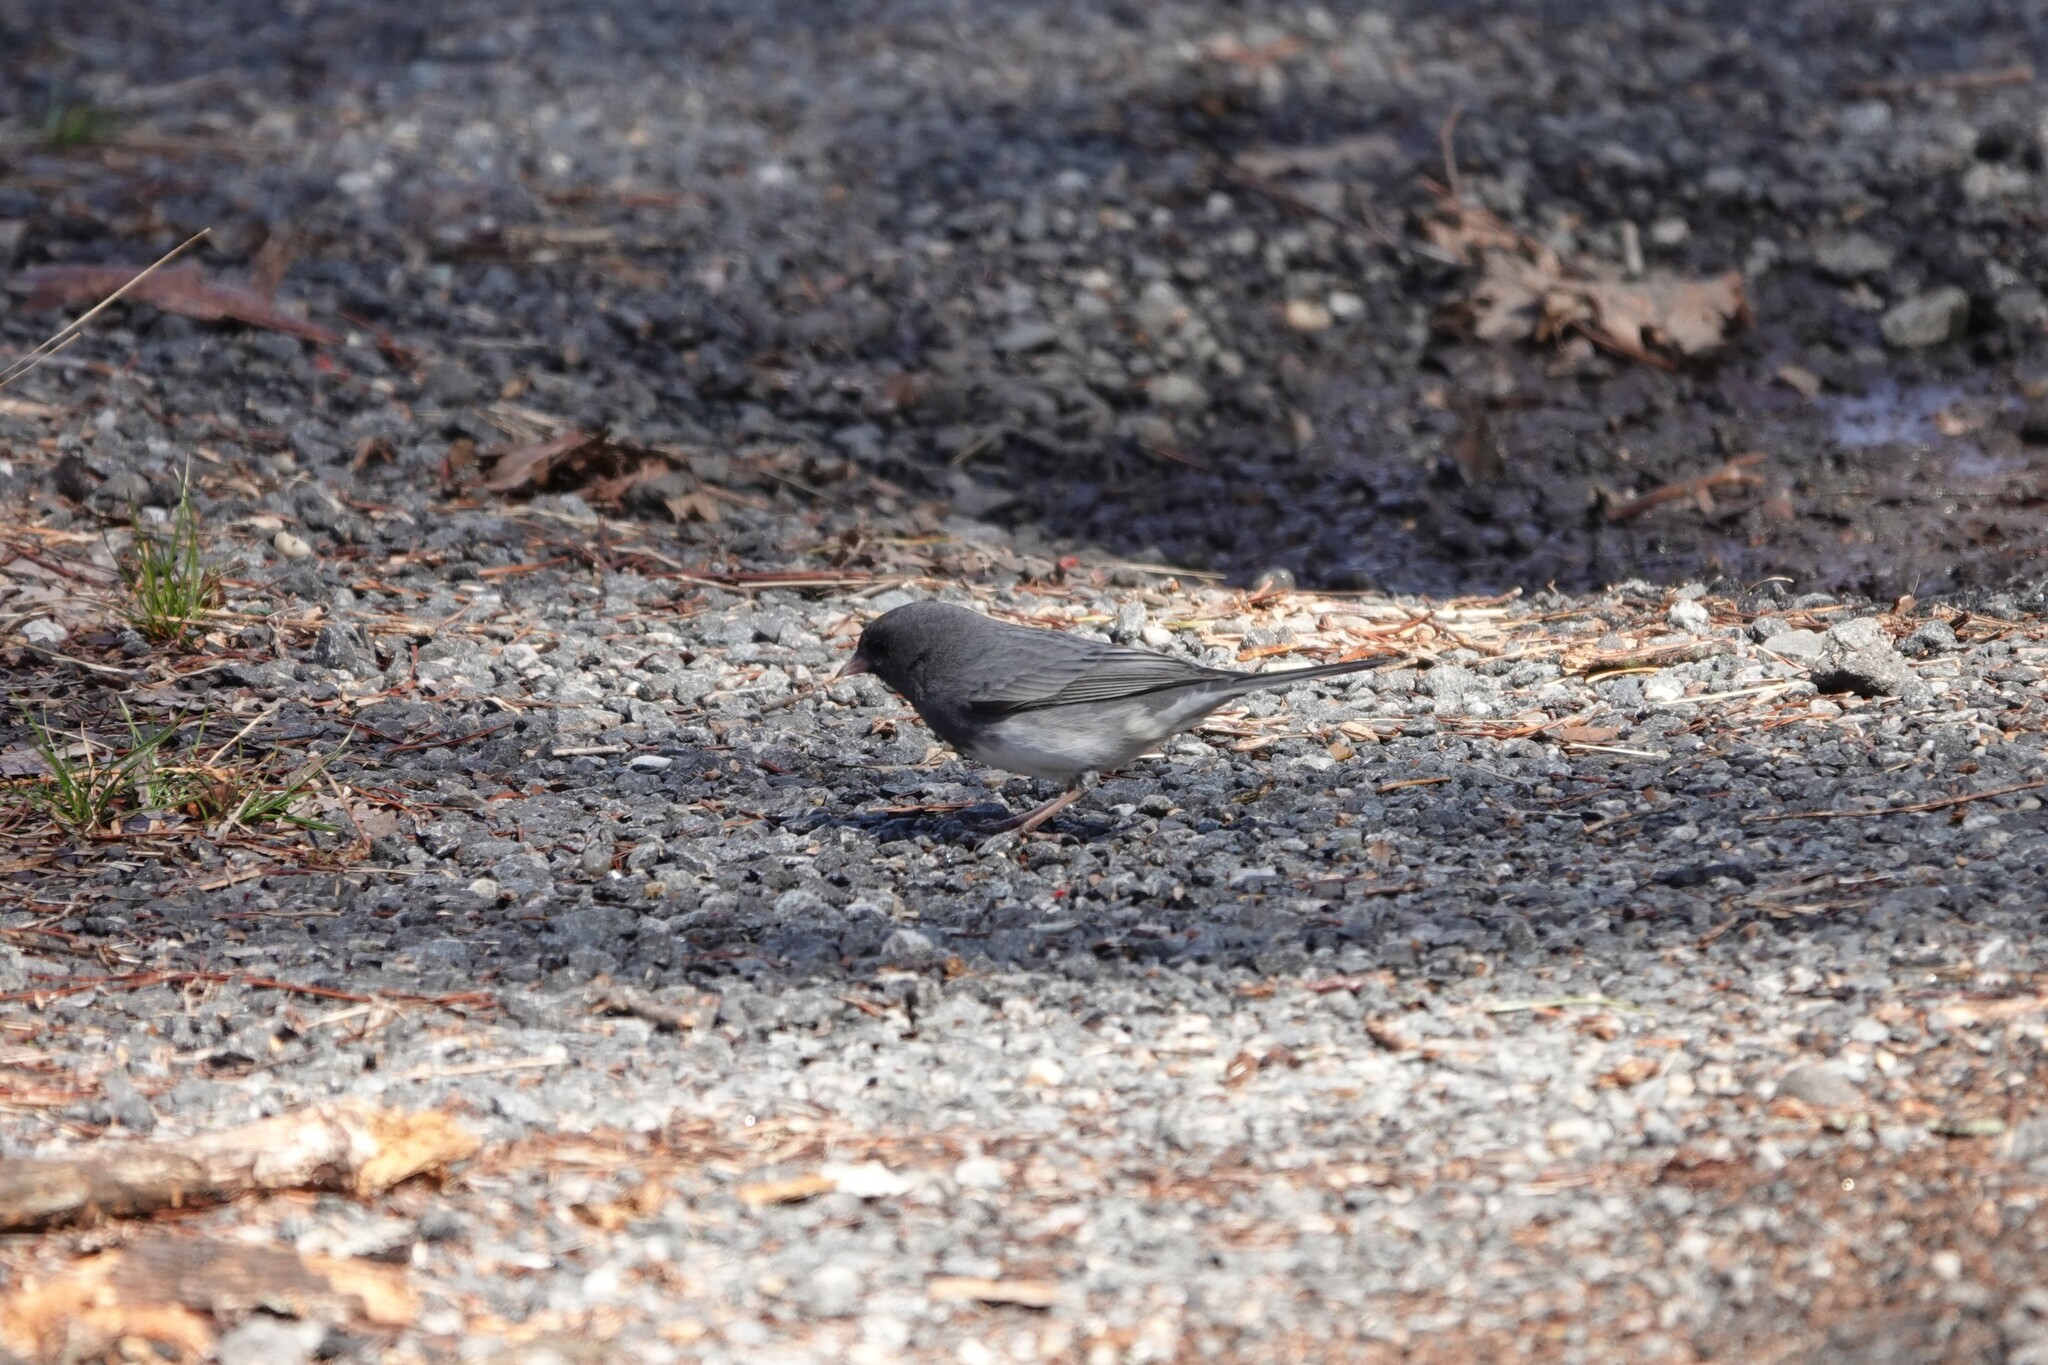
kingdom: Animalia
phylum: Chordata
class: Aves
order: Passeriformes
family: Passerellidae
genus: Junco
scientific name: Junco hyemalis
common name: Dark-eyed junco
